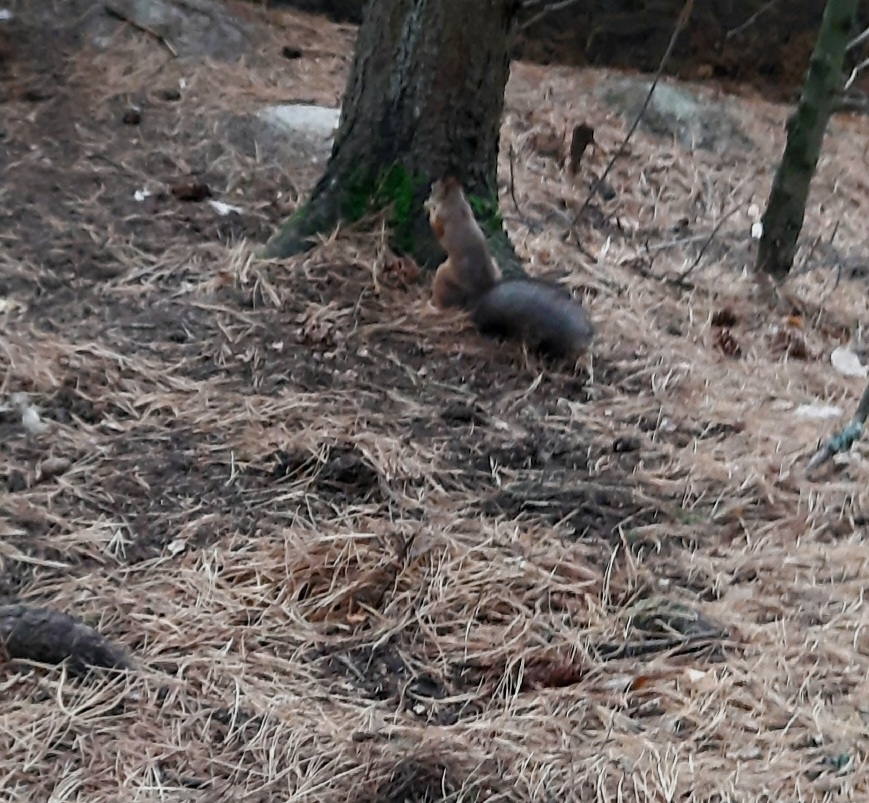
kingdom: Animalia
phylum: Chordata
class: Mammalia
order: Rodentia
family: Sciuridae
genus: Sciurus
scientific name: Sciurus vulgaris
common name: Eurasian red squirrel
